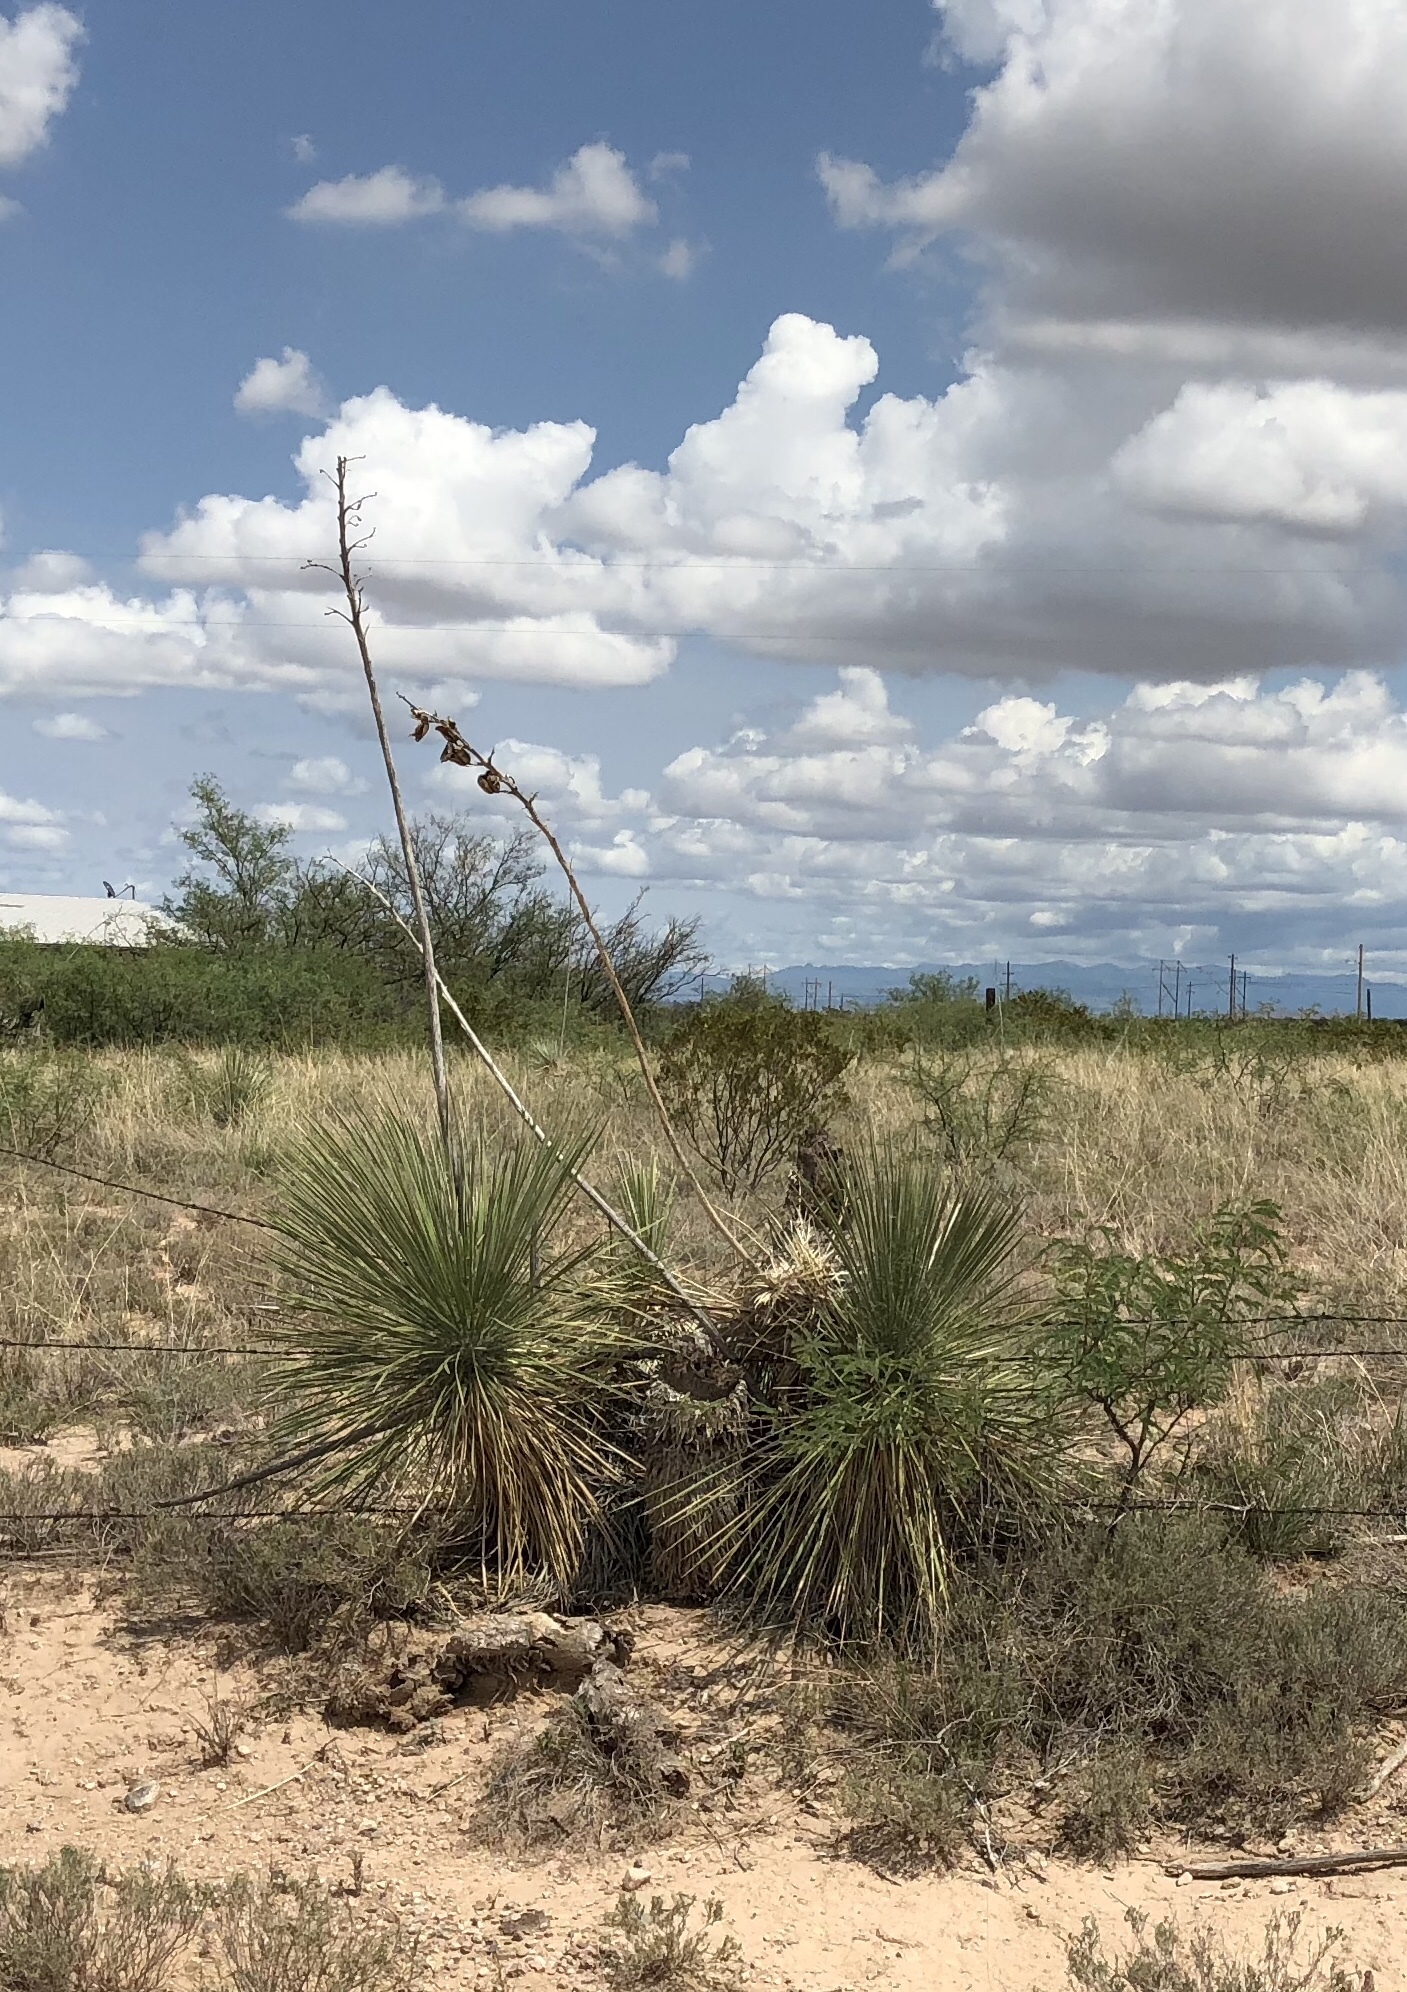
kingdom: Plantae
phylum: Tracheophyta
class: Liliopsida
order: Asparagales
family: Asparagaceae
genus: Yucca
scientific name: Yucca elata
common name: Palmella
